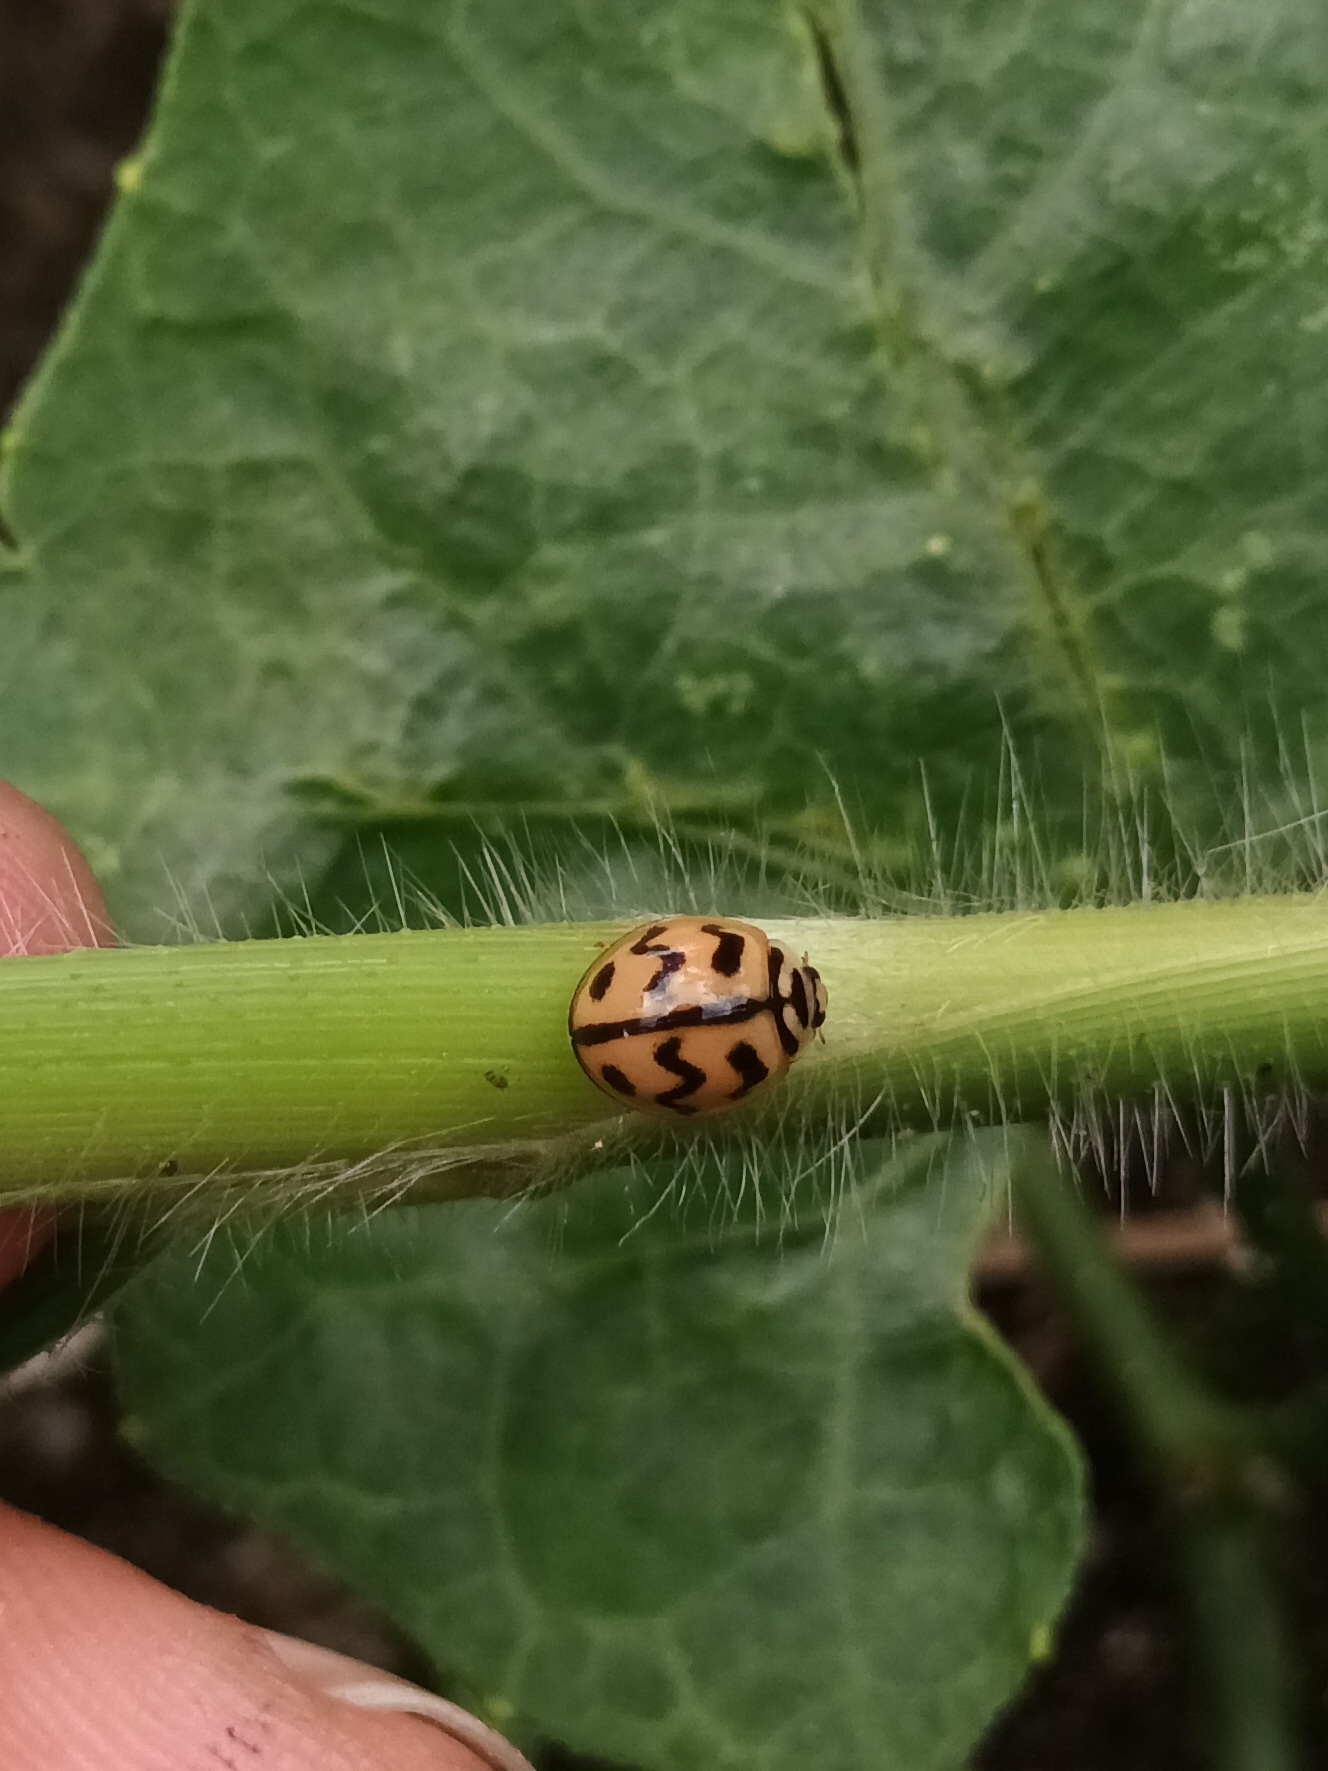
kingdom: Animalia
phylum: Arthropoda
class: Insecta
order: Coleoptera
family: Coccinellidae
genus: Cheilomenes
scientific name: Cheilomenes sexmaculata
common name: Ladybird beetle
